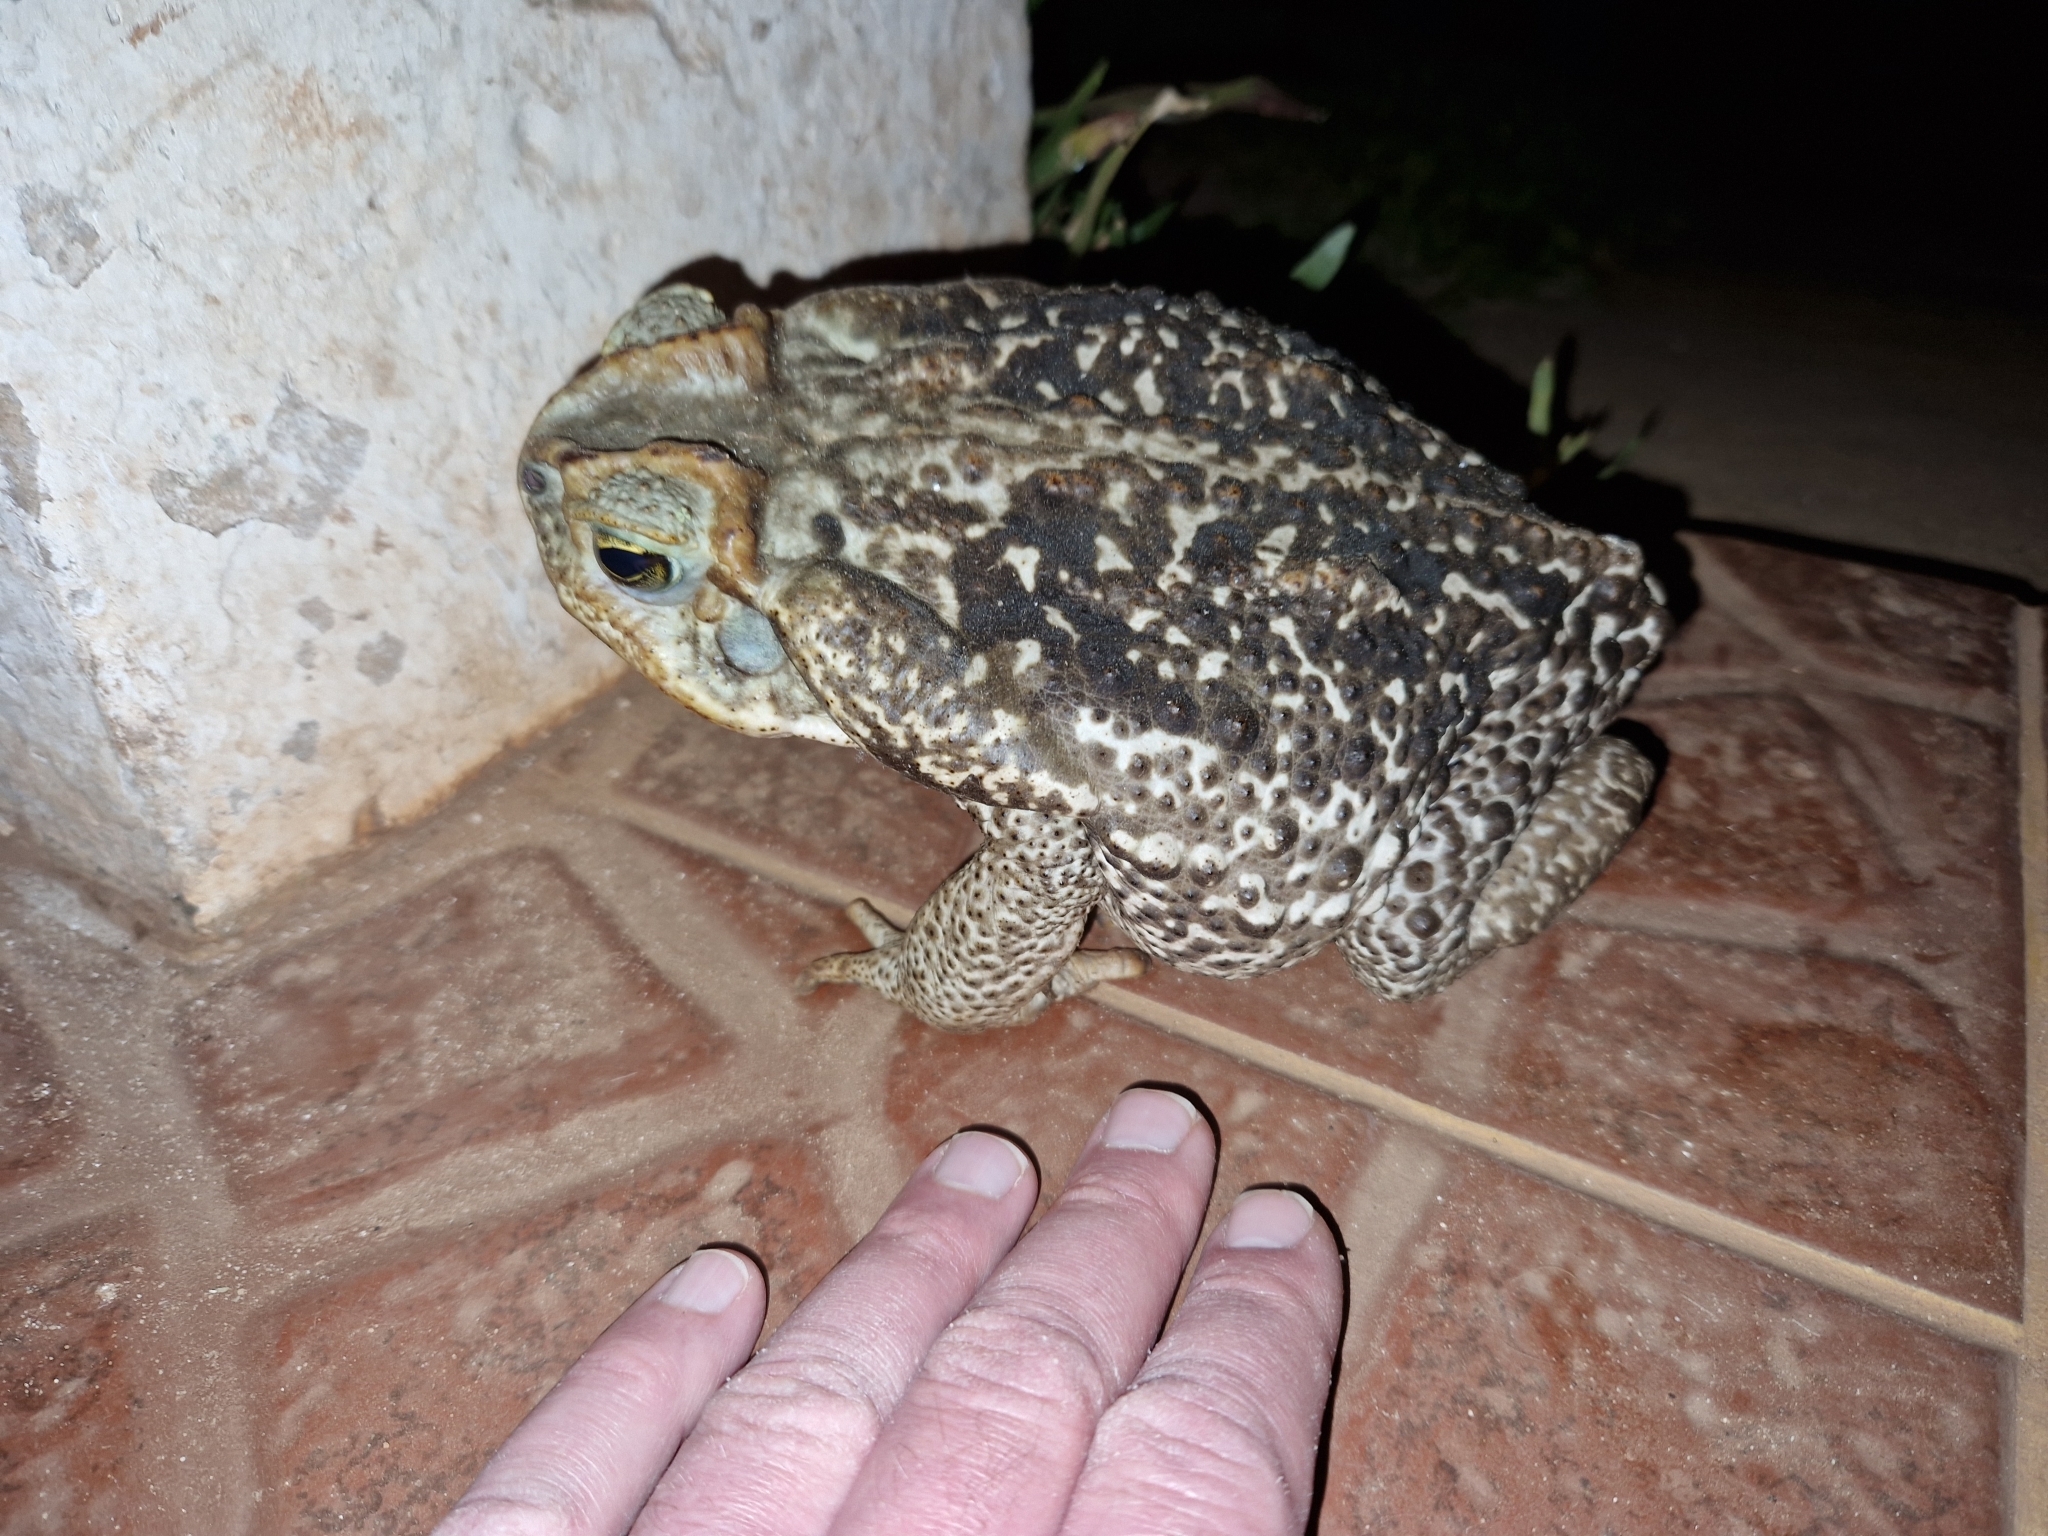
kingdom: Animalia
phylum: Chordata
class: Amphibia
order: Anura
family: Bufonidae
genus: Rhinella
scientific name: Rhinella diptycha
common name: Cope's toad
